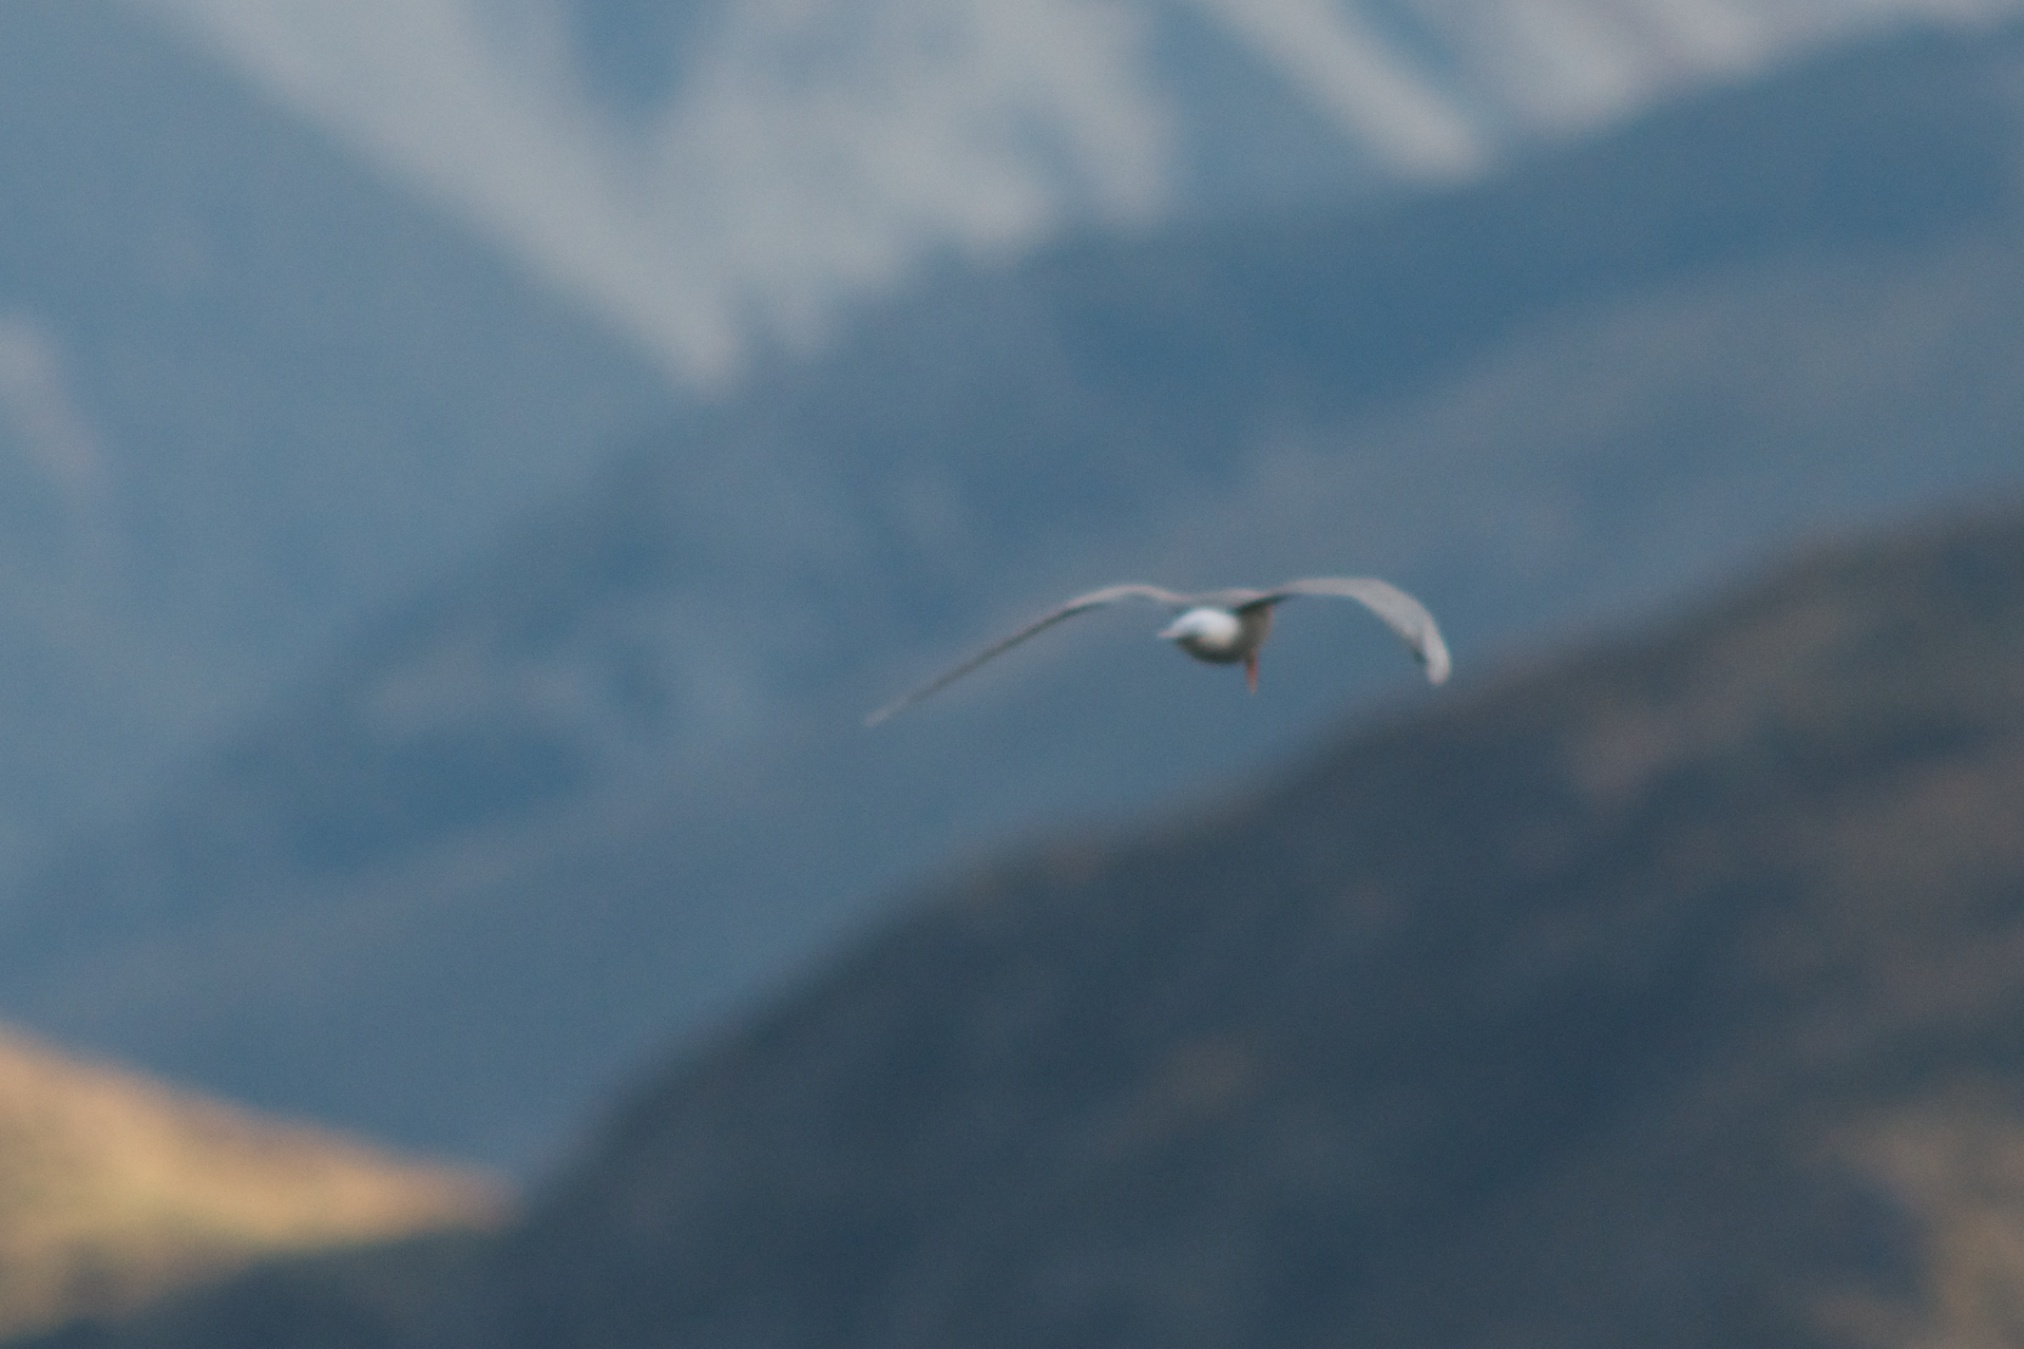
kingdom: Animalia
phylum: Chordata
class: Aves
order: Charadriiformes
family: Laridae
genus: Chlidonias
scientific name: Chlidonias albostriatus
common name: Black-fronted tern
